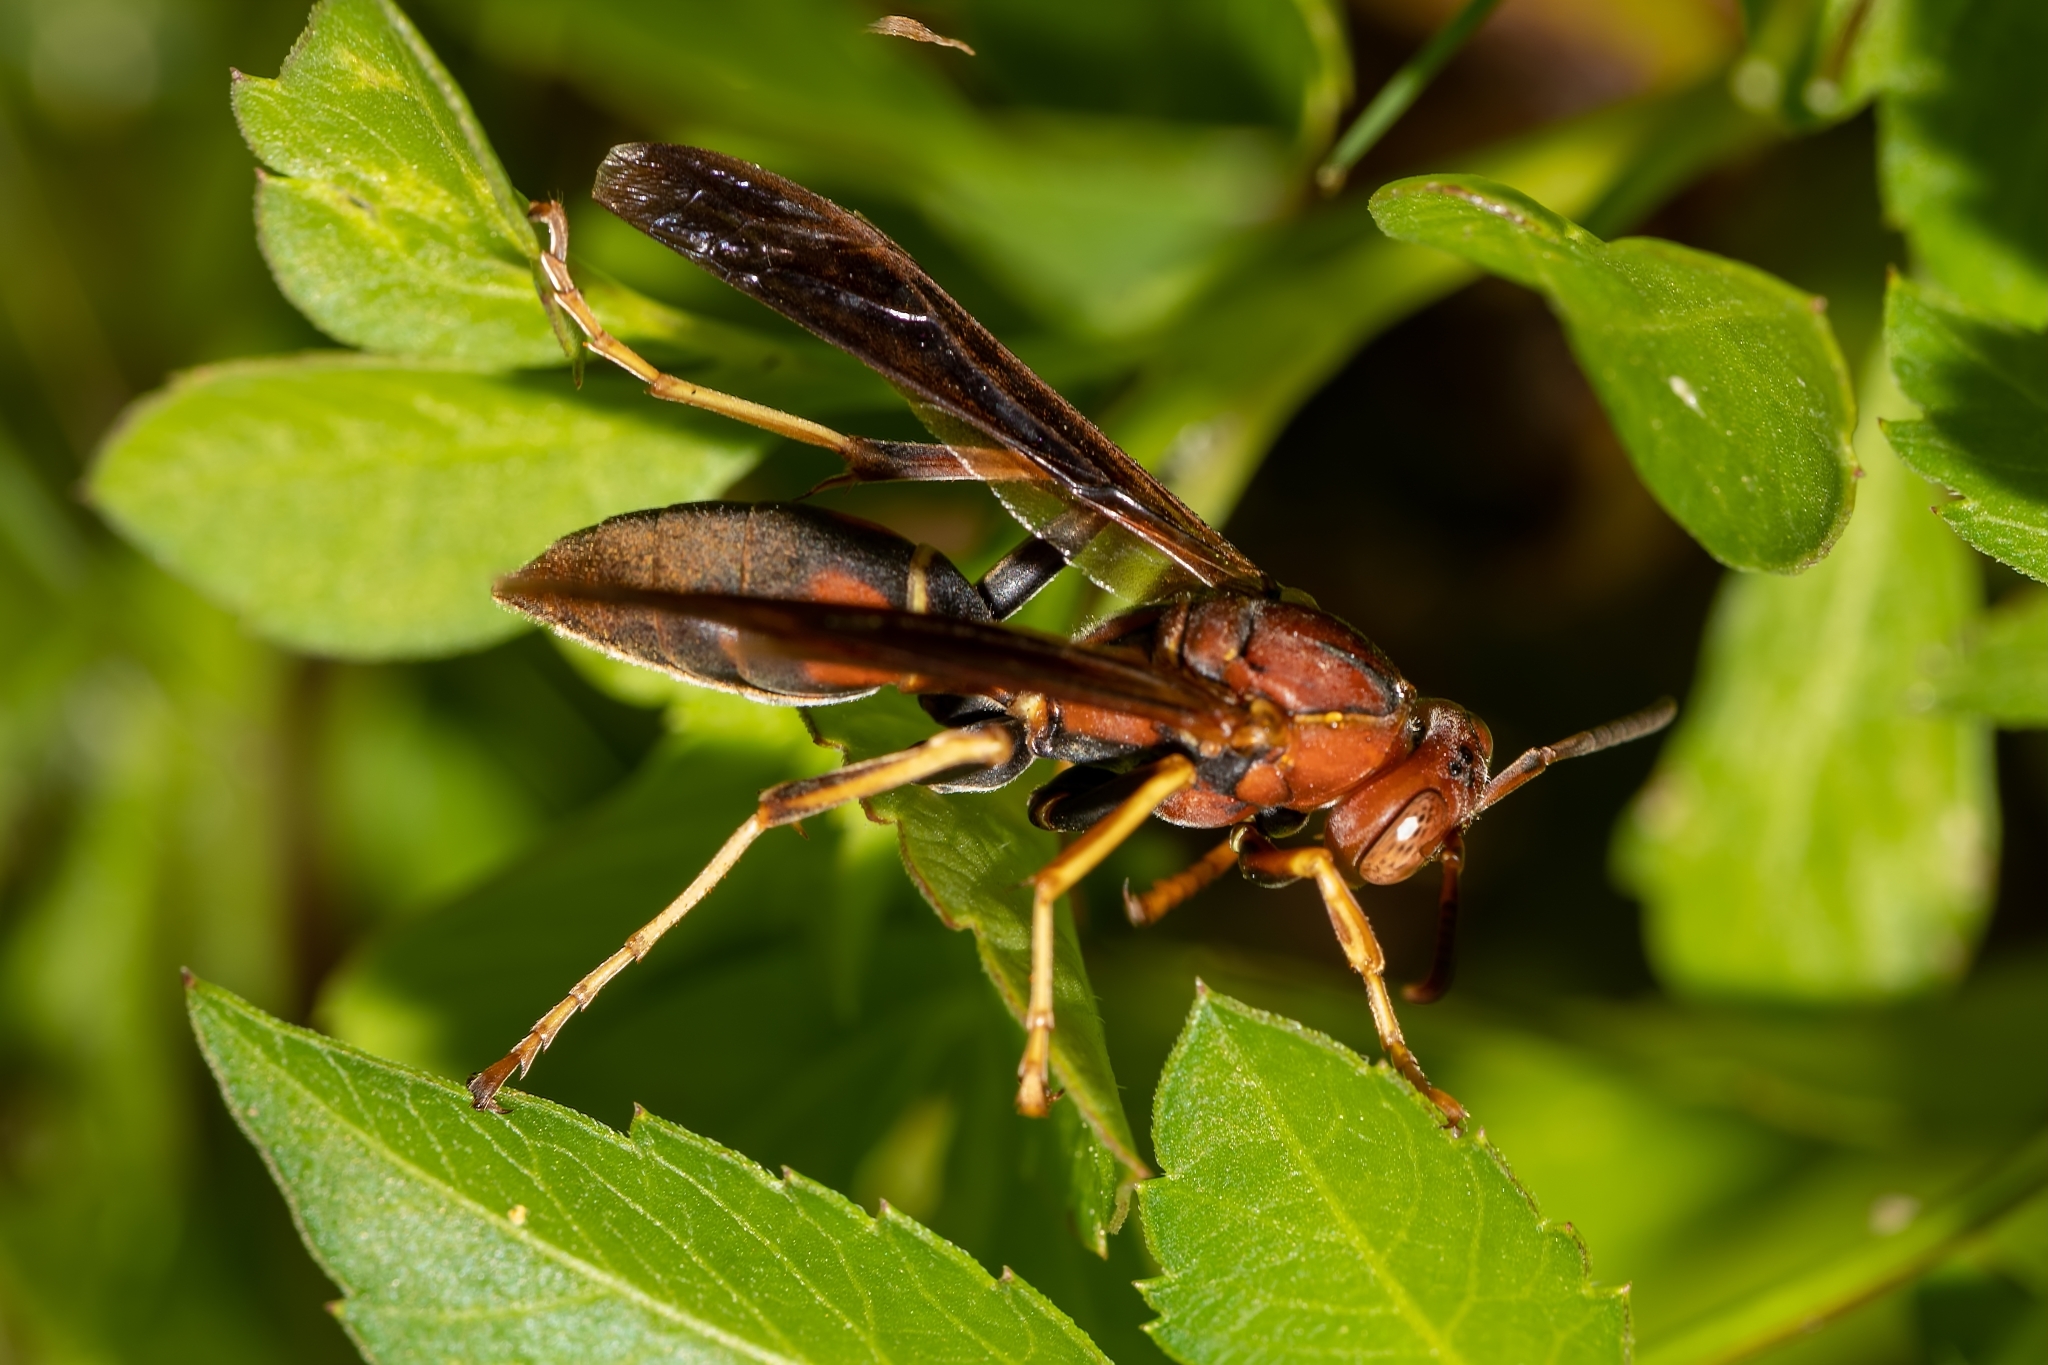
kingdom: Animalia
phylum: Arthropoda
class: Insecta
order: Hymenoptera
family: Eumenidae
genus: Polistes
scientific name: Polistes fuscatus
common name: Dark paper wasp
